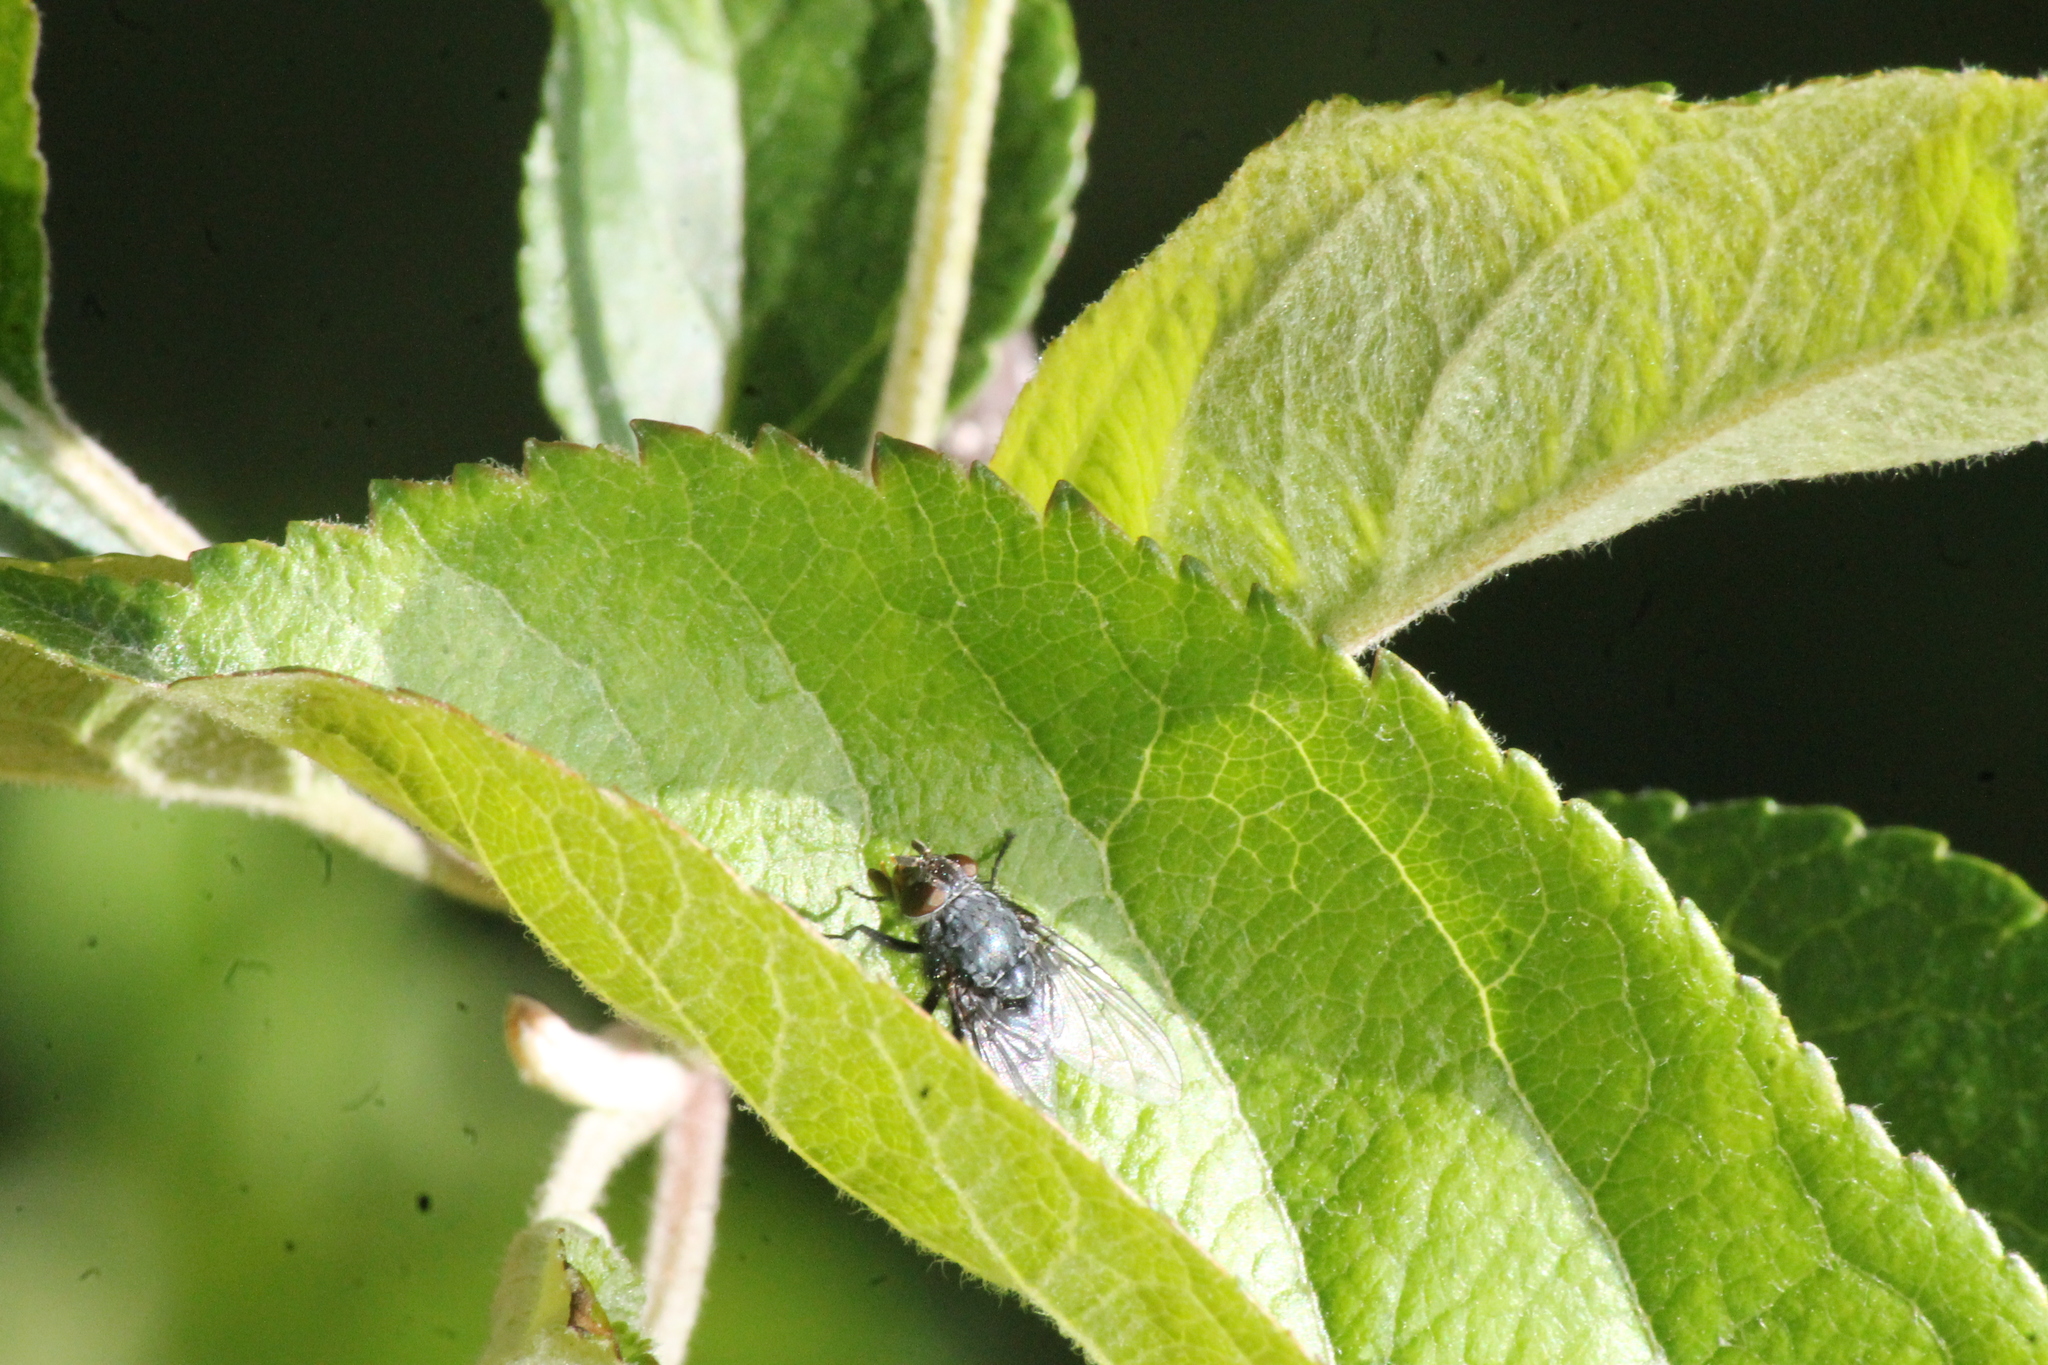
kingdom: Animalia
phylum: Arthropoda
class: Insecta
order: Diptera
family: Calliphoridae
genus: Calliphora
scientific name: Calliphora vicina
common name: Common blow flie
